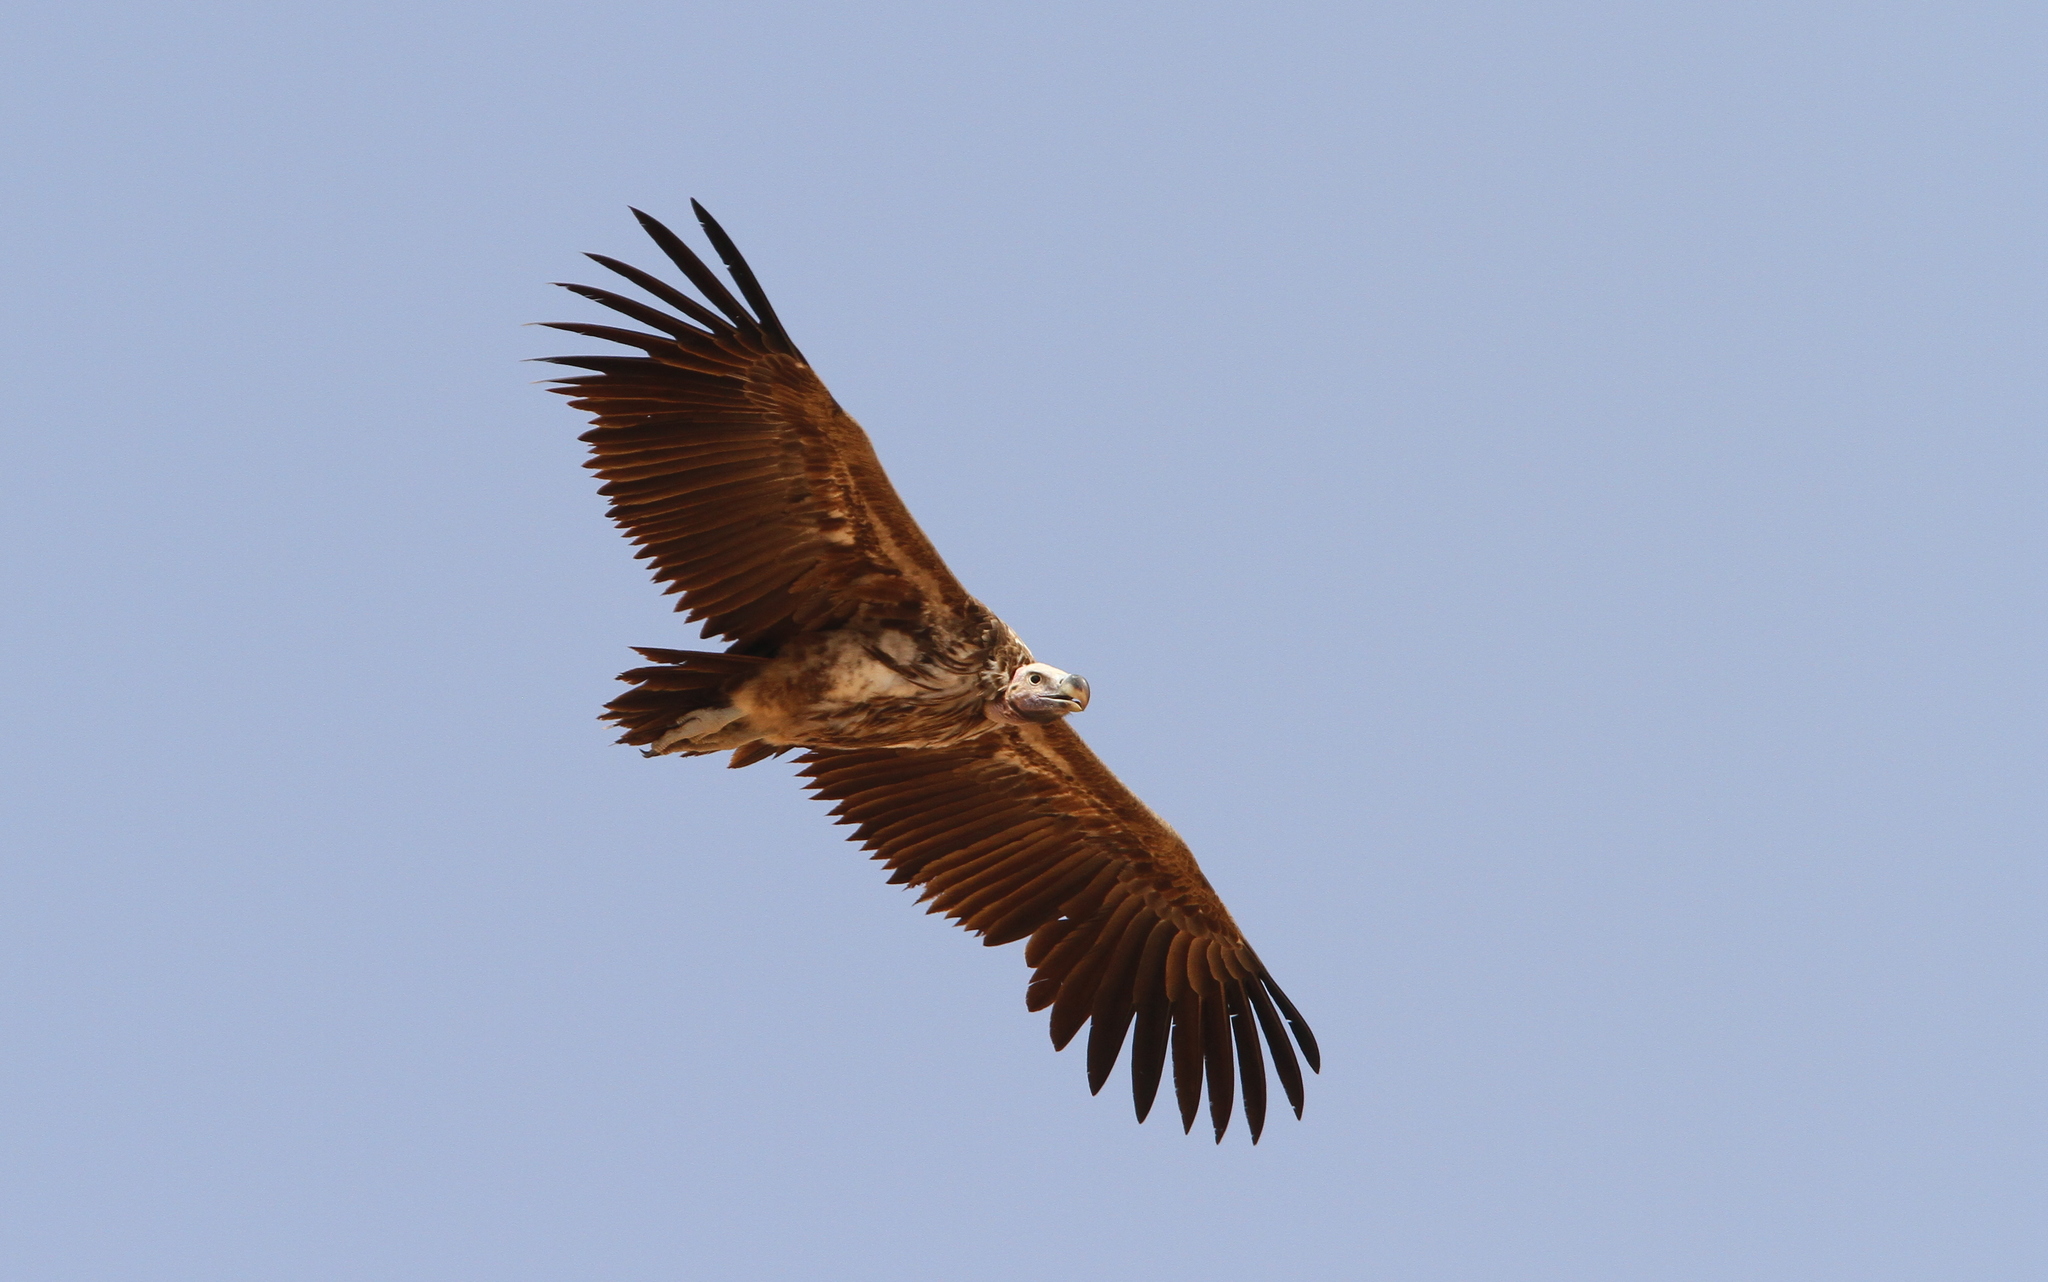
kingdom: Animalia
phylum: Chordata
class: Aves
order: Accipitriformes
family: Accipitridae
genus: Torgos
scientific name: Torgos tracheliotos
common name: Lappet-faced vulture
